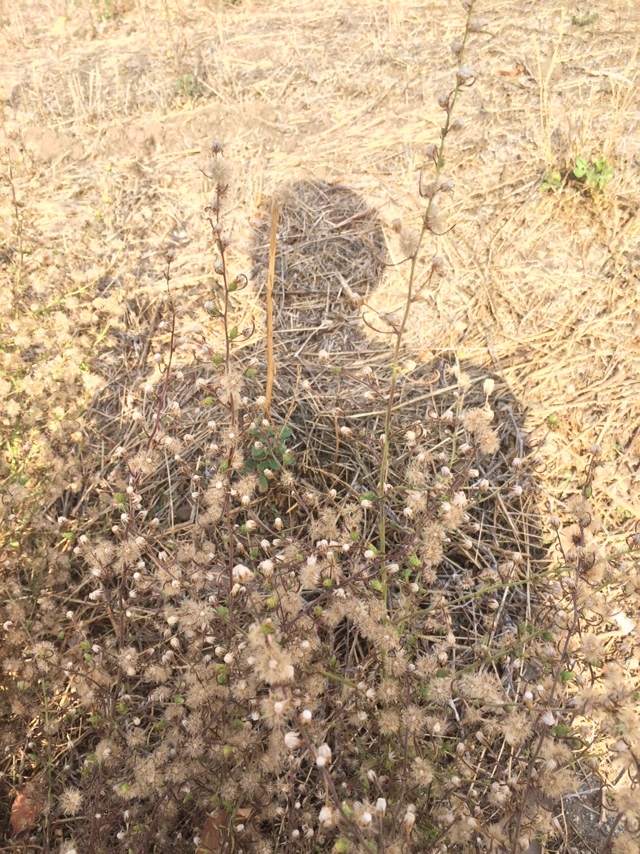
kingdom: Plantae
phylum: Tracheophyta
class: Magnoliopsida
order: Asterales
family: Asteraceae
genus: Dittrichia
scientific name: Dittrichia graveolens
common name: Stinking fleabane
